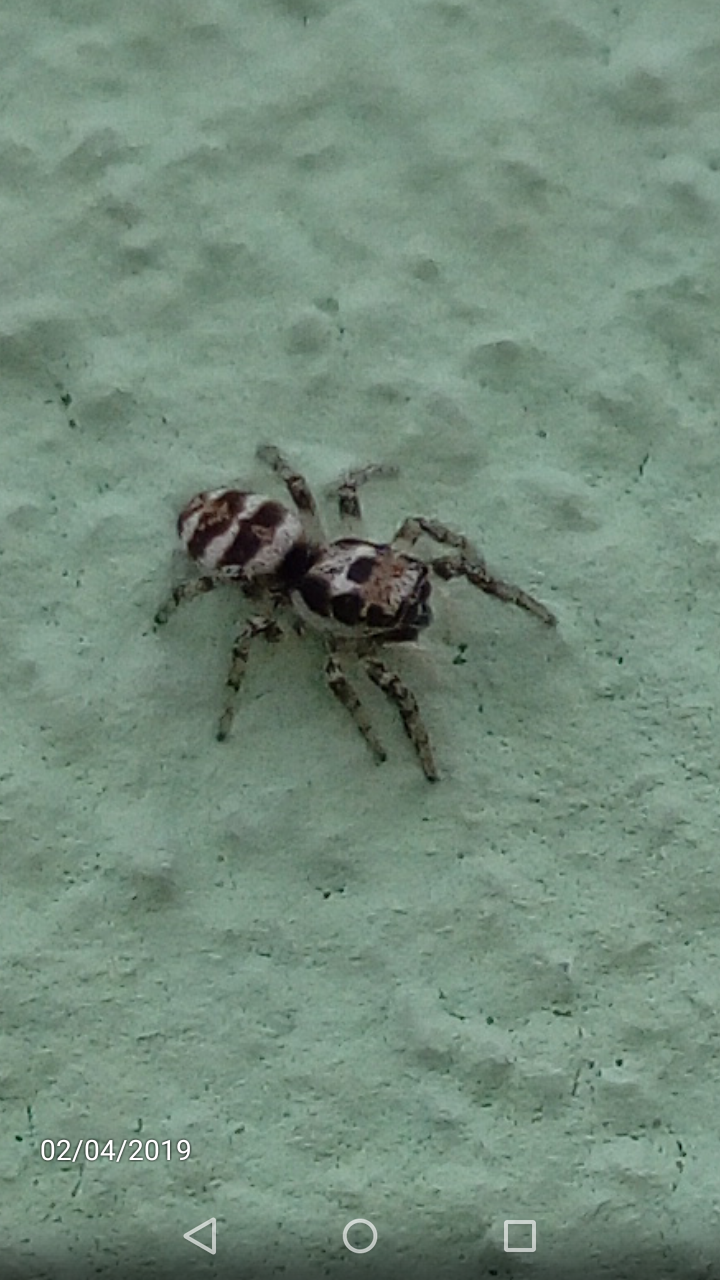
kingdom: Animalia
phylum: Arthropoda
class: Arachnida
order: Araneae
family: Salticidae
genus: Salticus
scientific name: Salticus scenicus
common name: Zebra jumper
